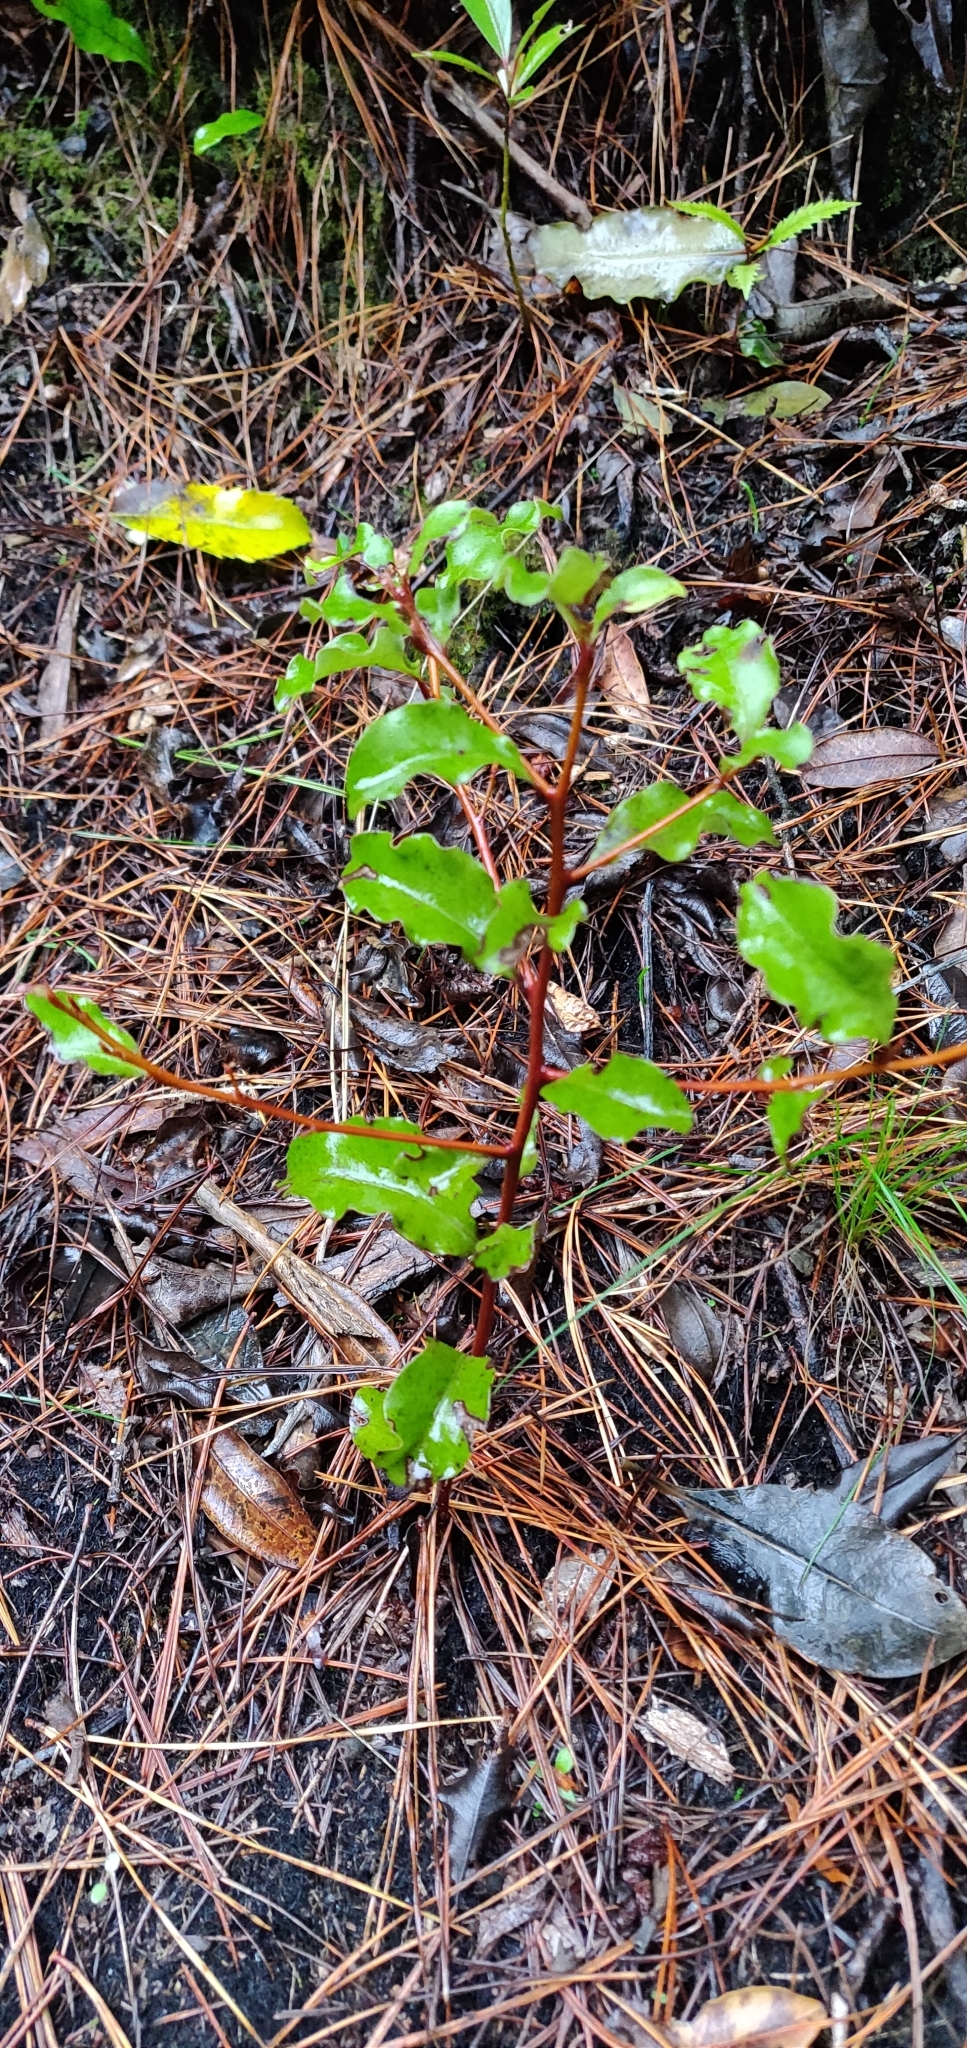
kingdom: Plantae
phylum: Tracheophyta
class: Magnoliopsida
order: Ericales
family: Primulaceae
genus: Myrsine
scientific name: Myrsine australis
